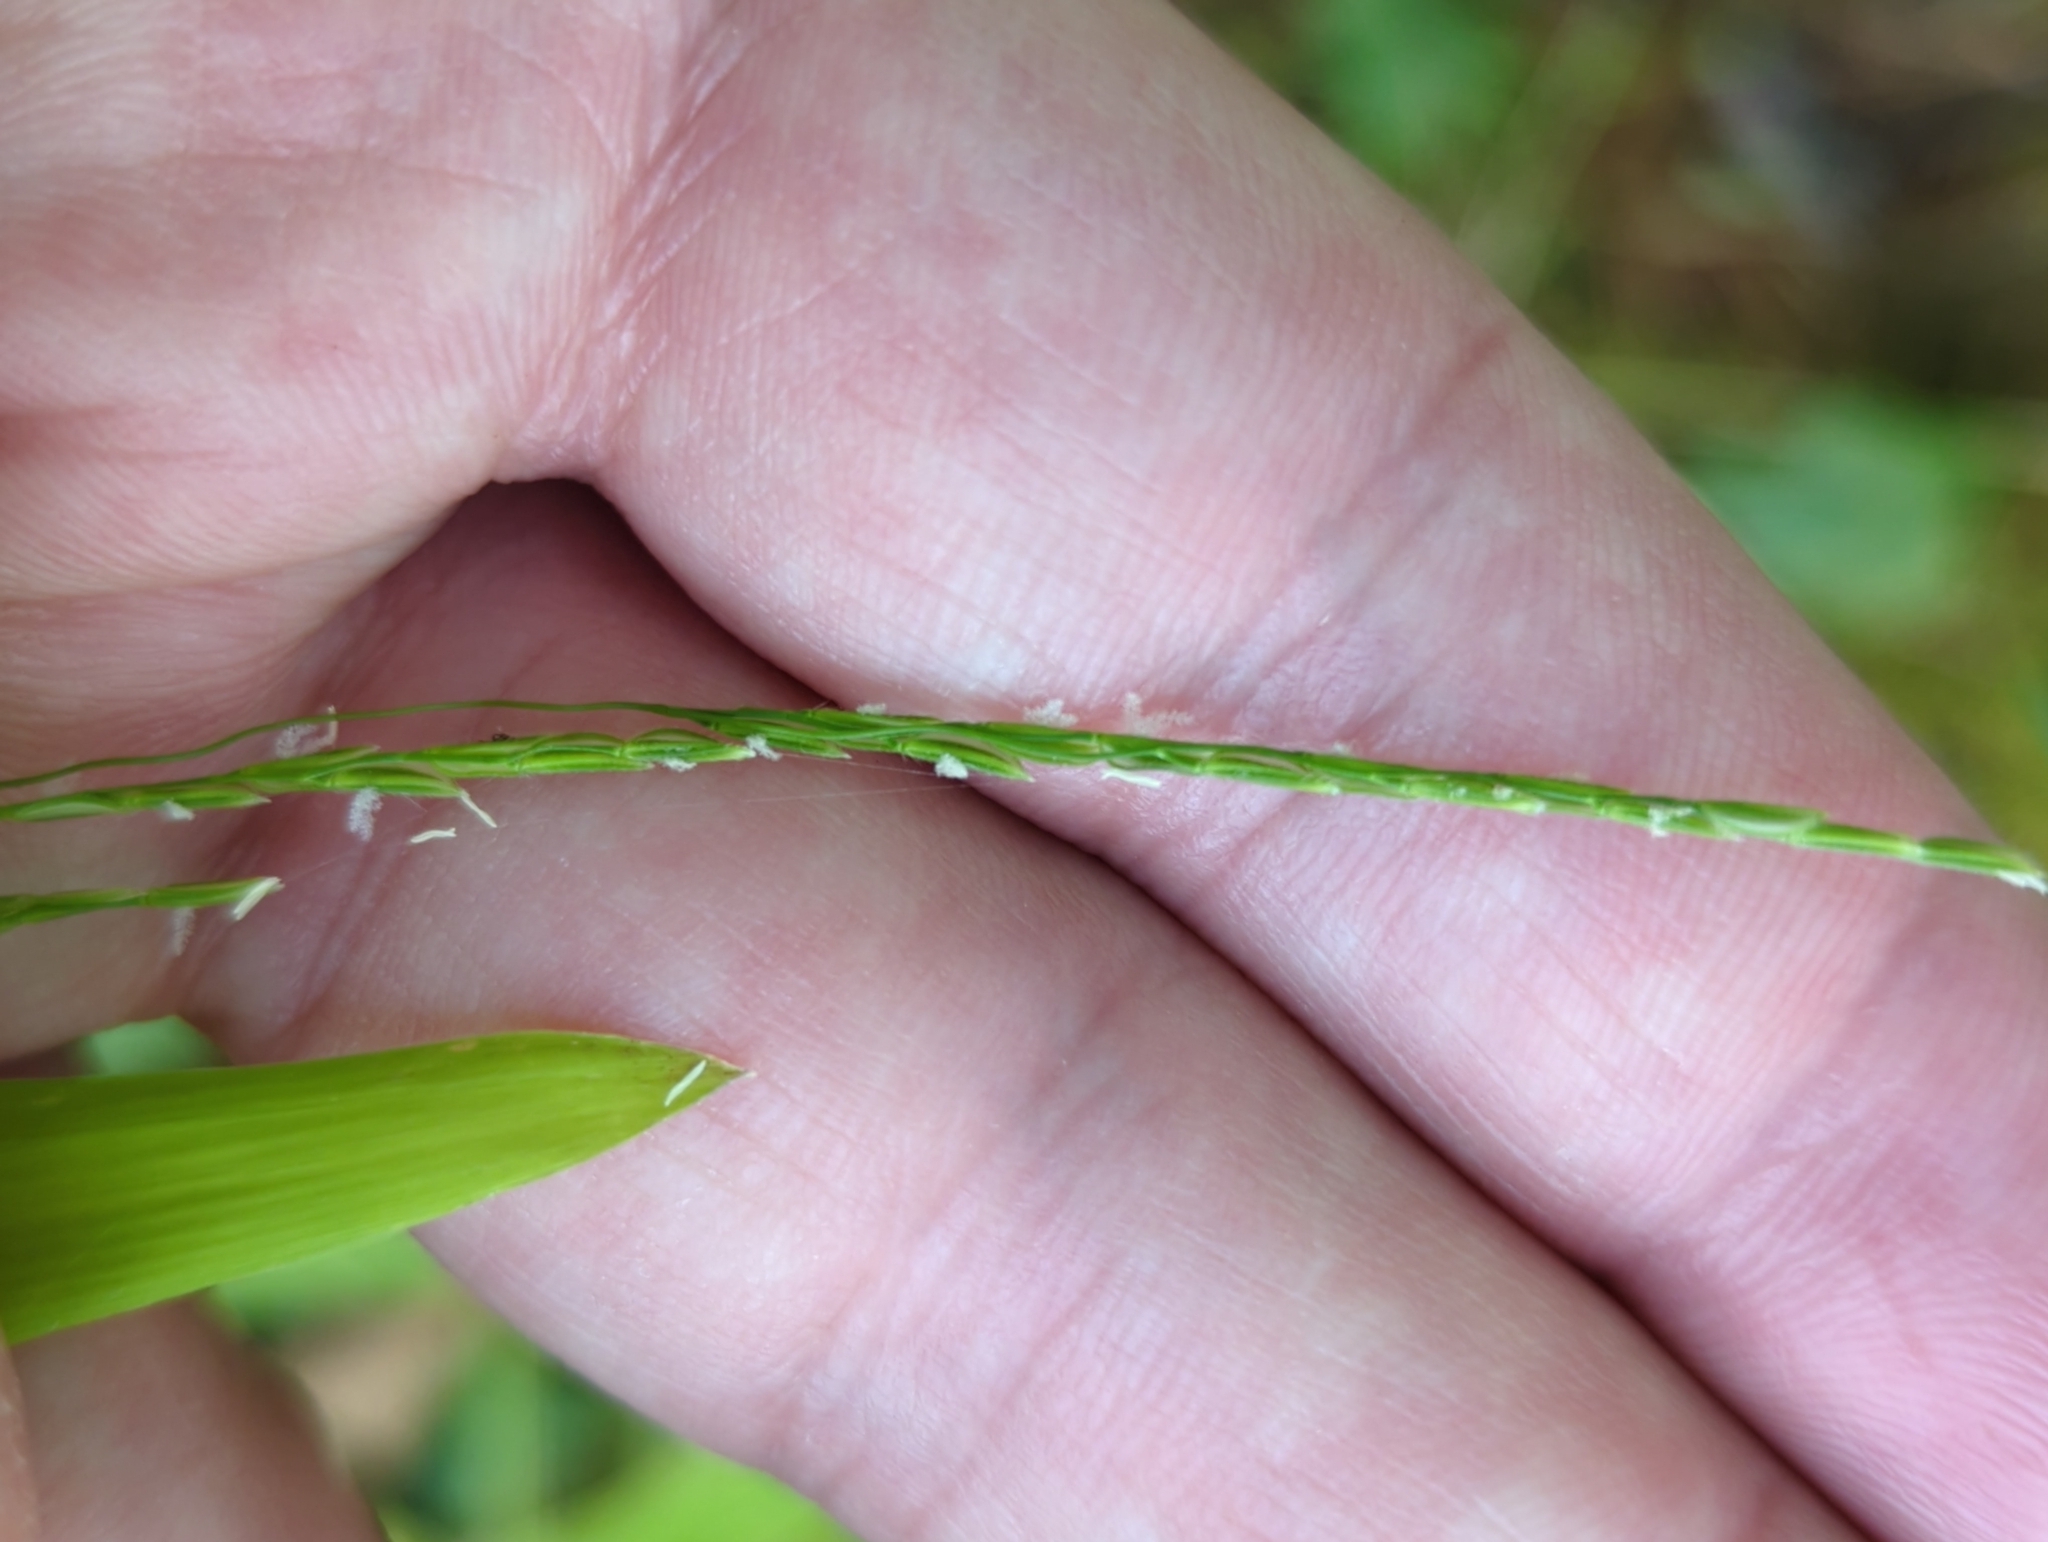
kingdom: Plantae
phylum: Tracheophyta
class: Liliopsida
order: Poales
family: Poaceae
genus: Leersia
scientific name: Leersia virginica
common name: White cutgrass
